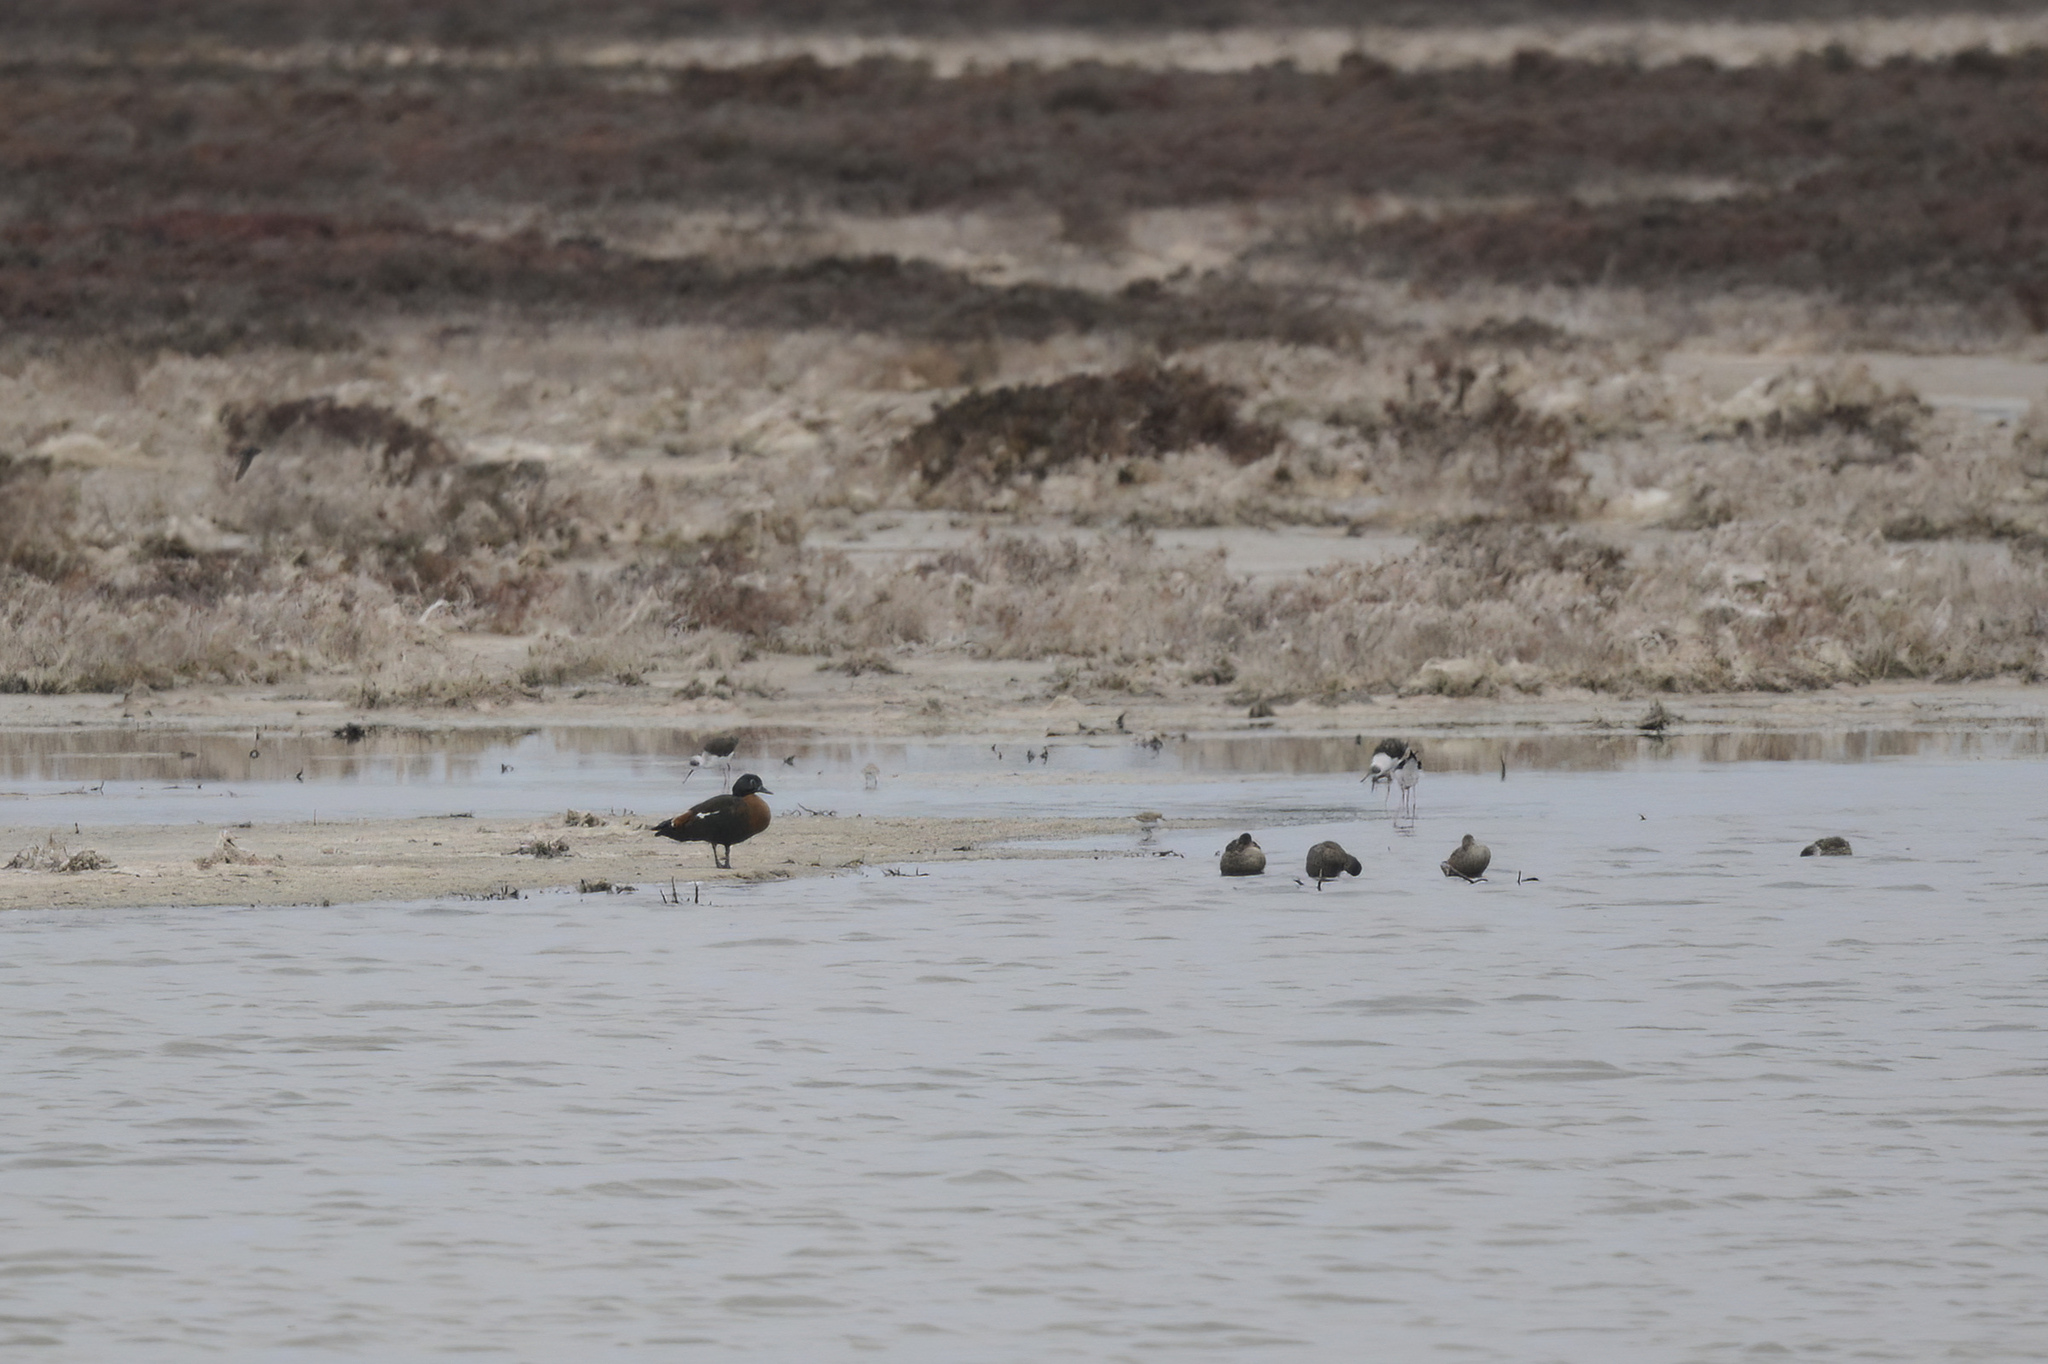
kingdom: Animalia
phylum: Chordata
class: Aves
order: Anseriformes
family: Anatidae
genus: Tadorna
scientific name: Tadorna tadornoides
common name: Australian shelduck
